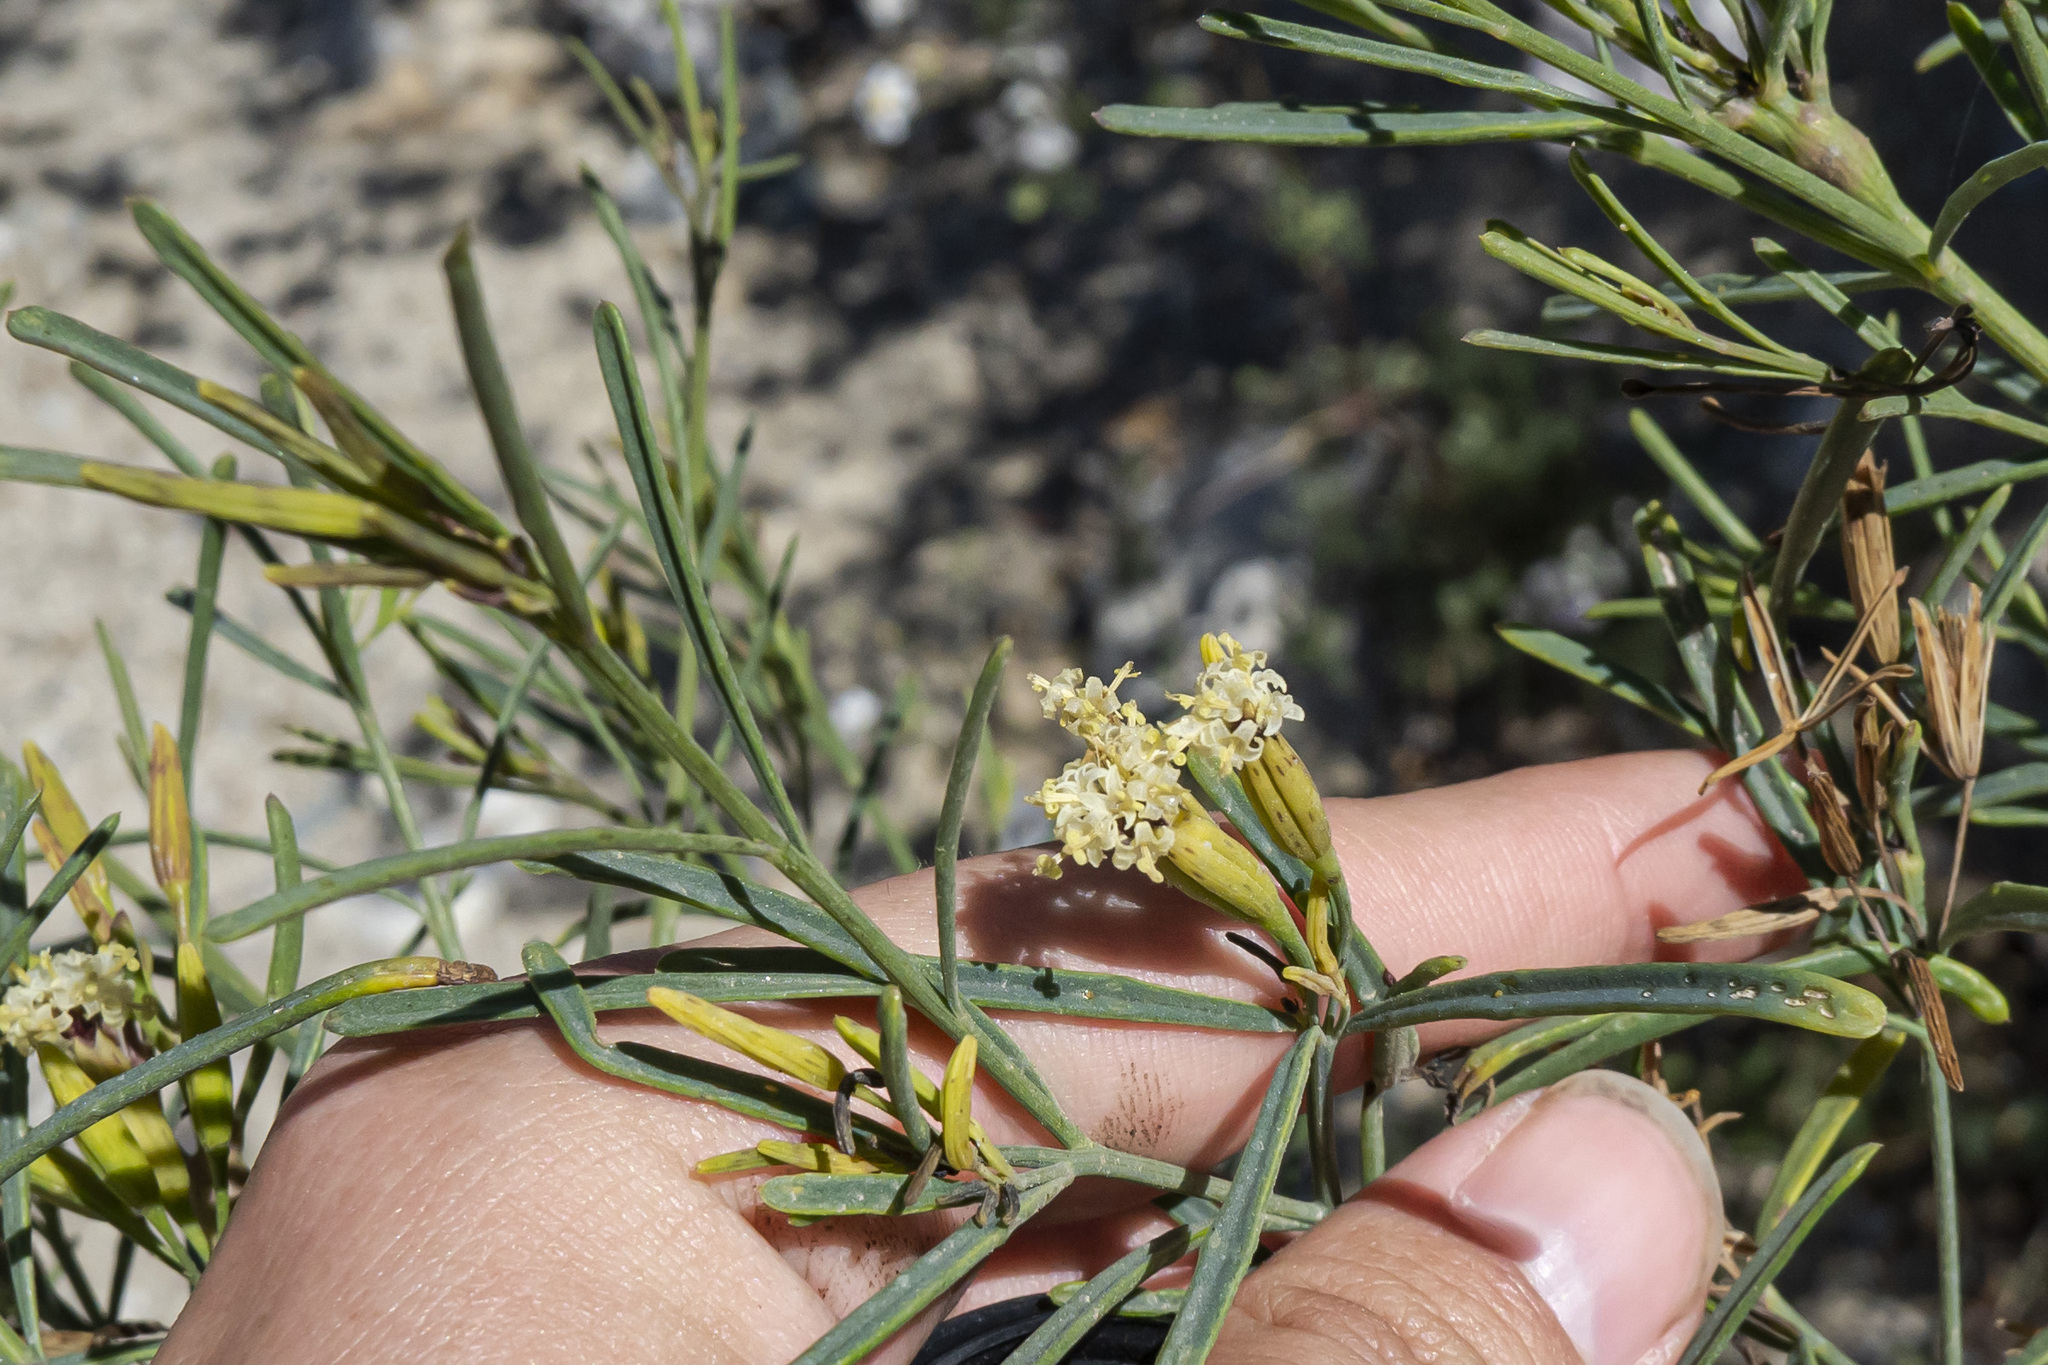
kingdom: Plantae
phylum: Tracheophyta
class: Magnoliopsida
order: Asterales
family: Asteraceae
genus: Porophyllum
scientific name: Porophyllum gracile
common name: Odora
